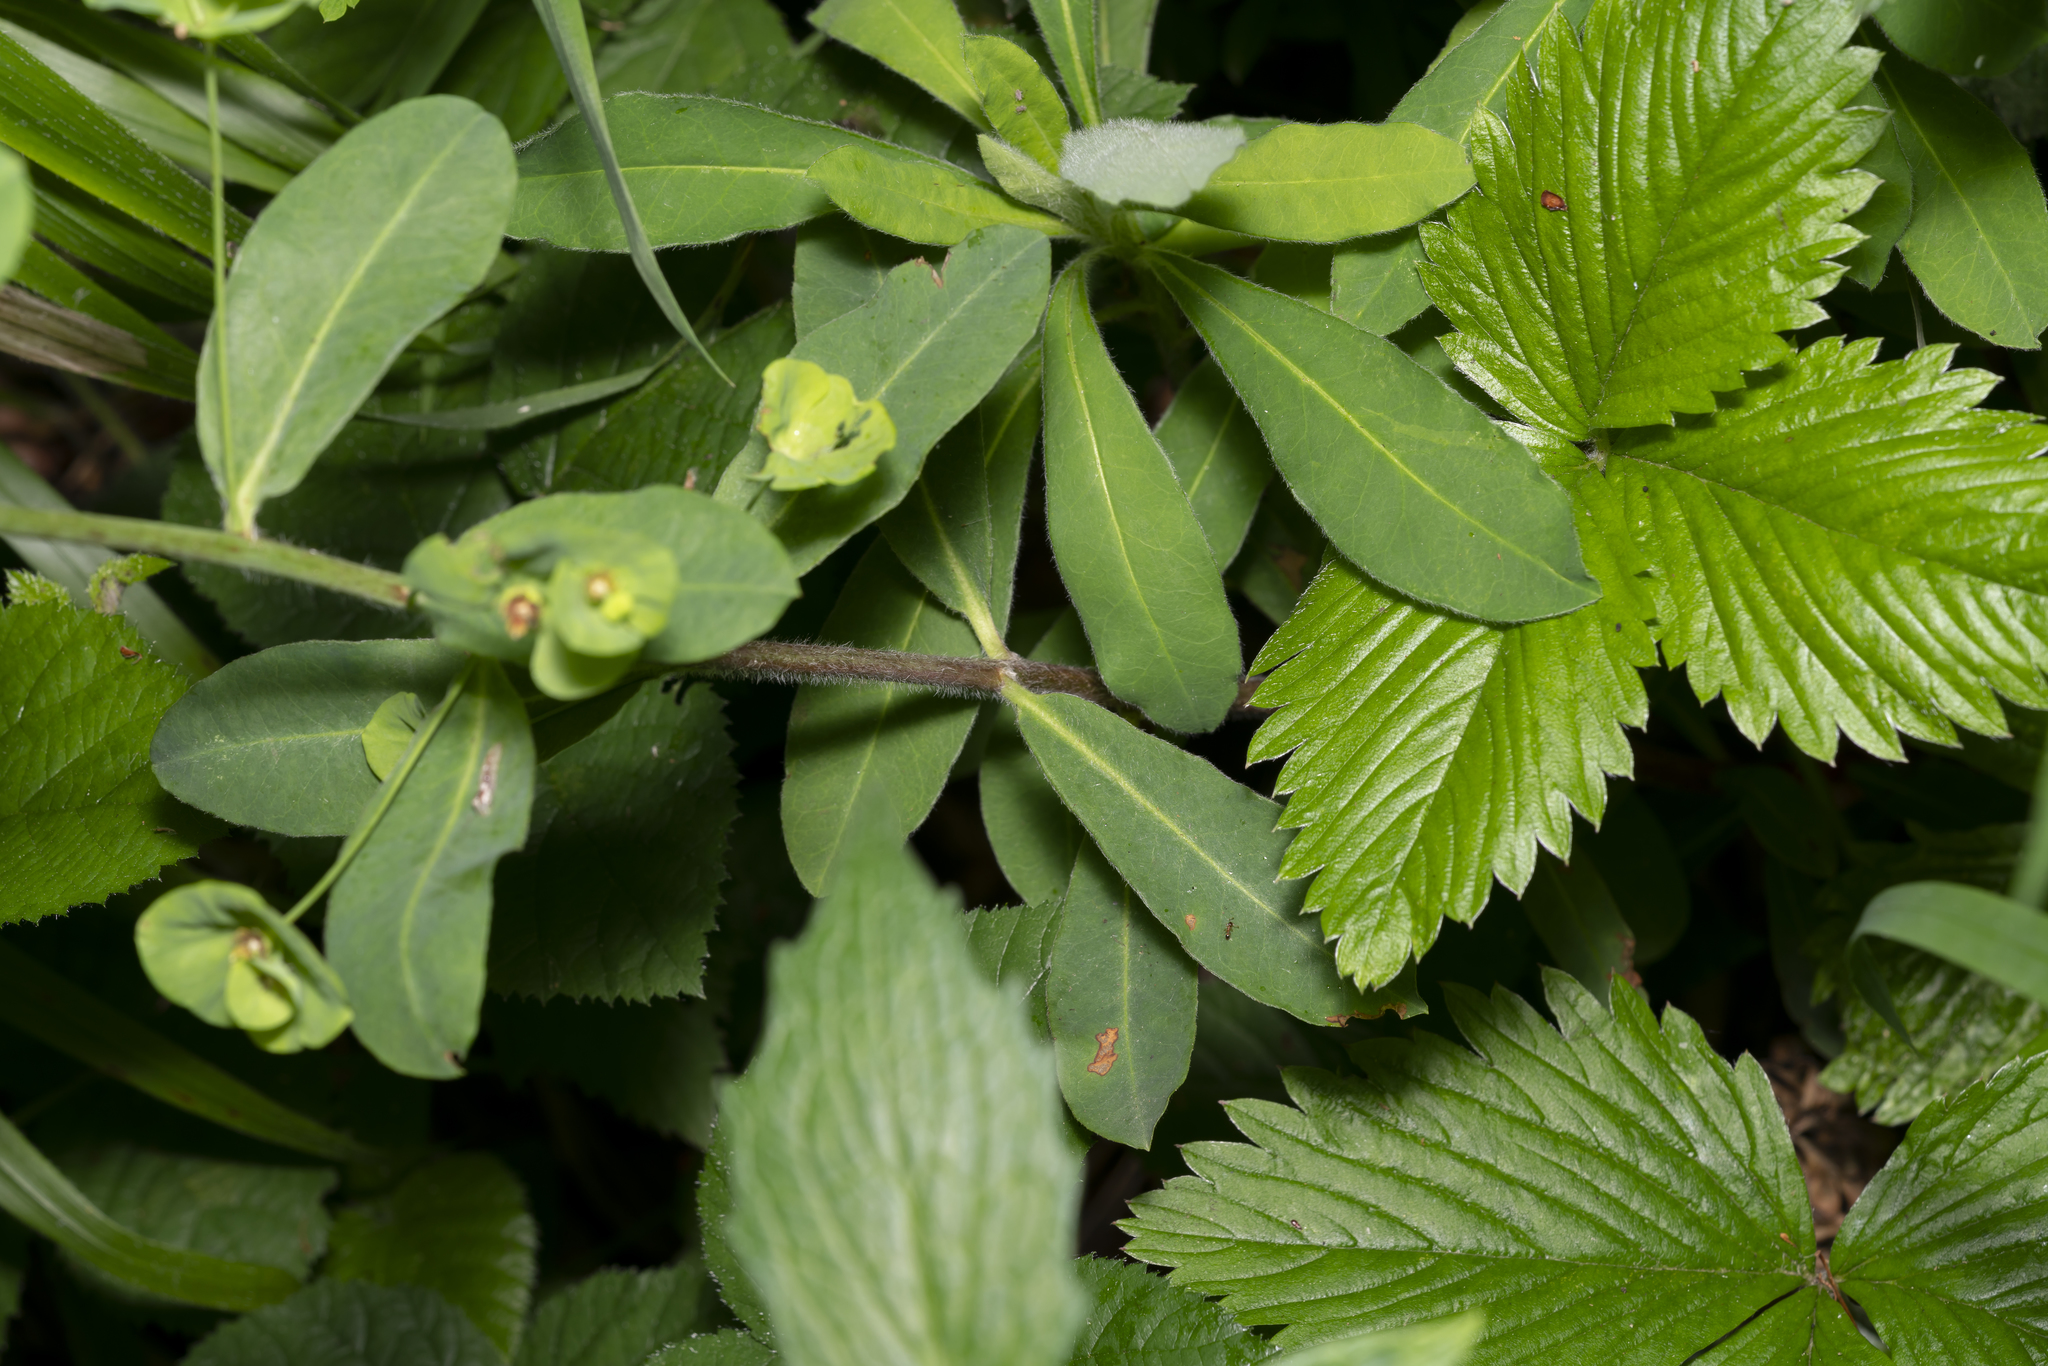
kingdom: Plantae
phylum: Tracheophyta
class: Magnoliopsida
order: Malpighiales
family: Euphorbiaceae
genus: Euphorbia
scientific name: Euphorbia amygdaloides
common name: Wood spurge
